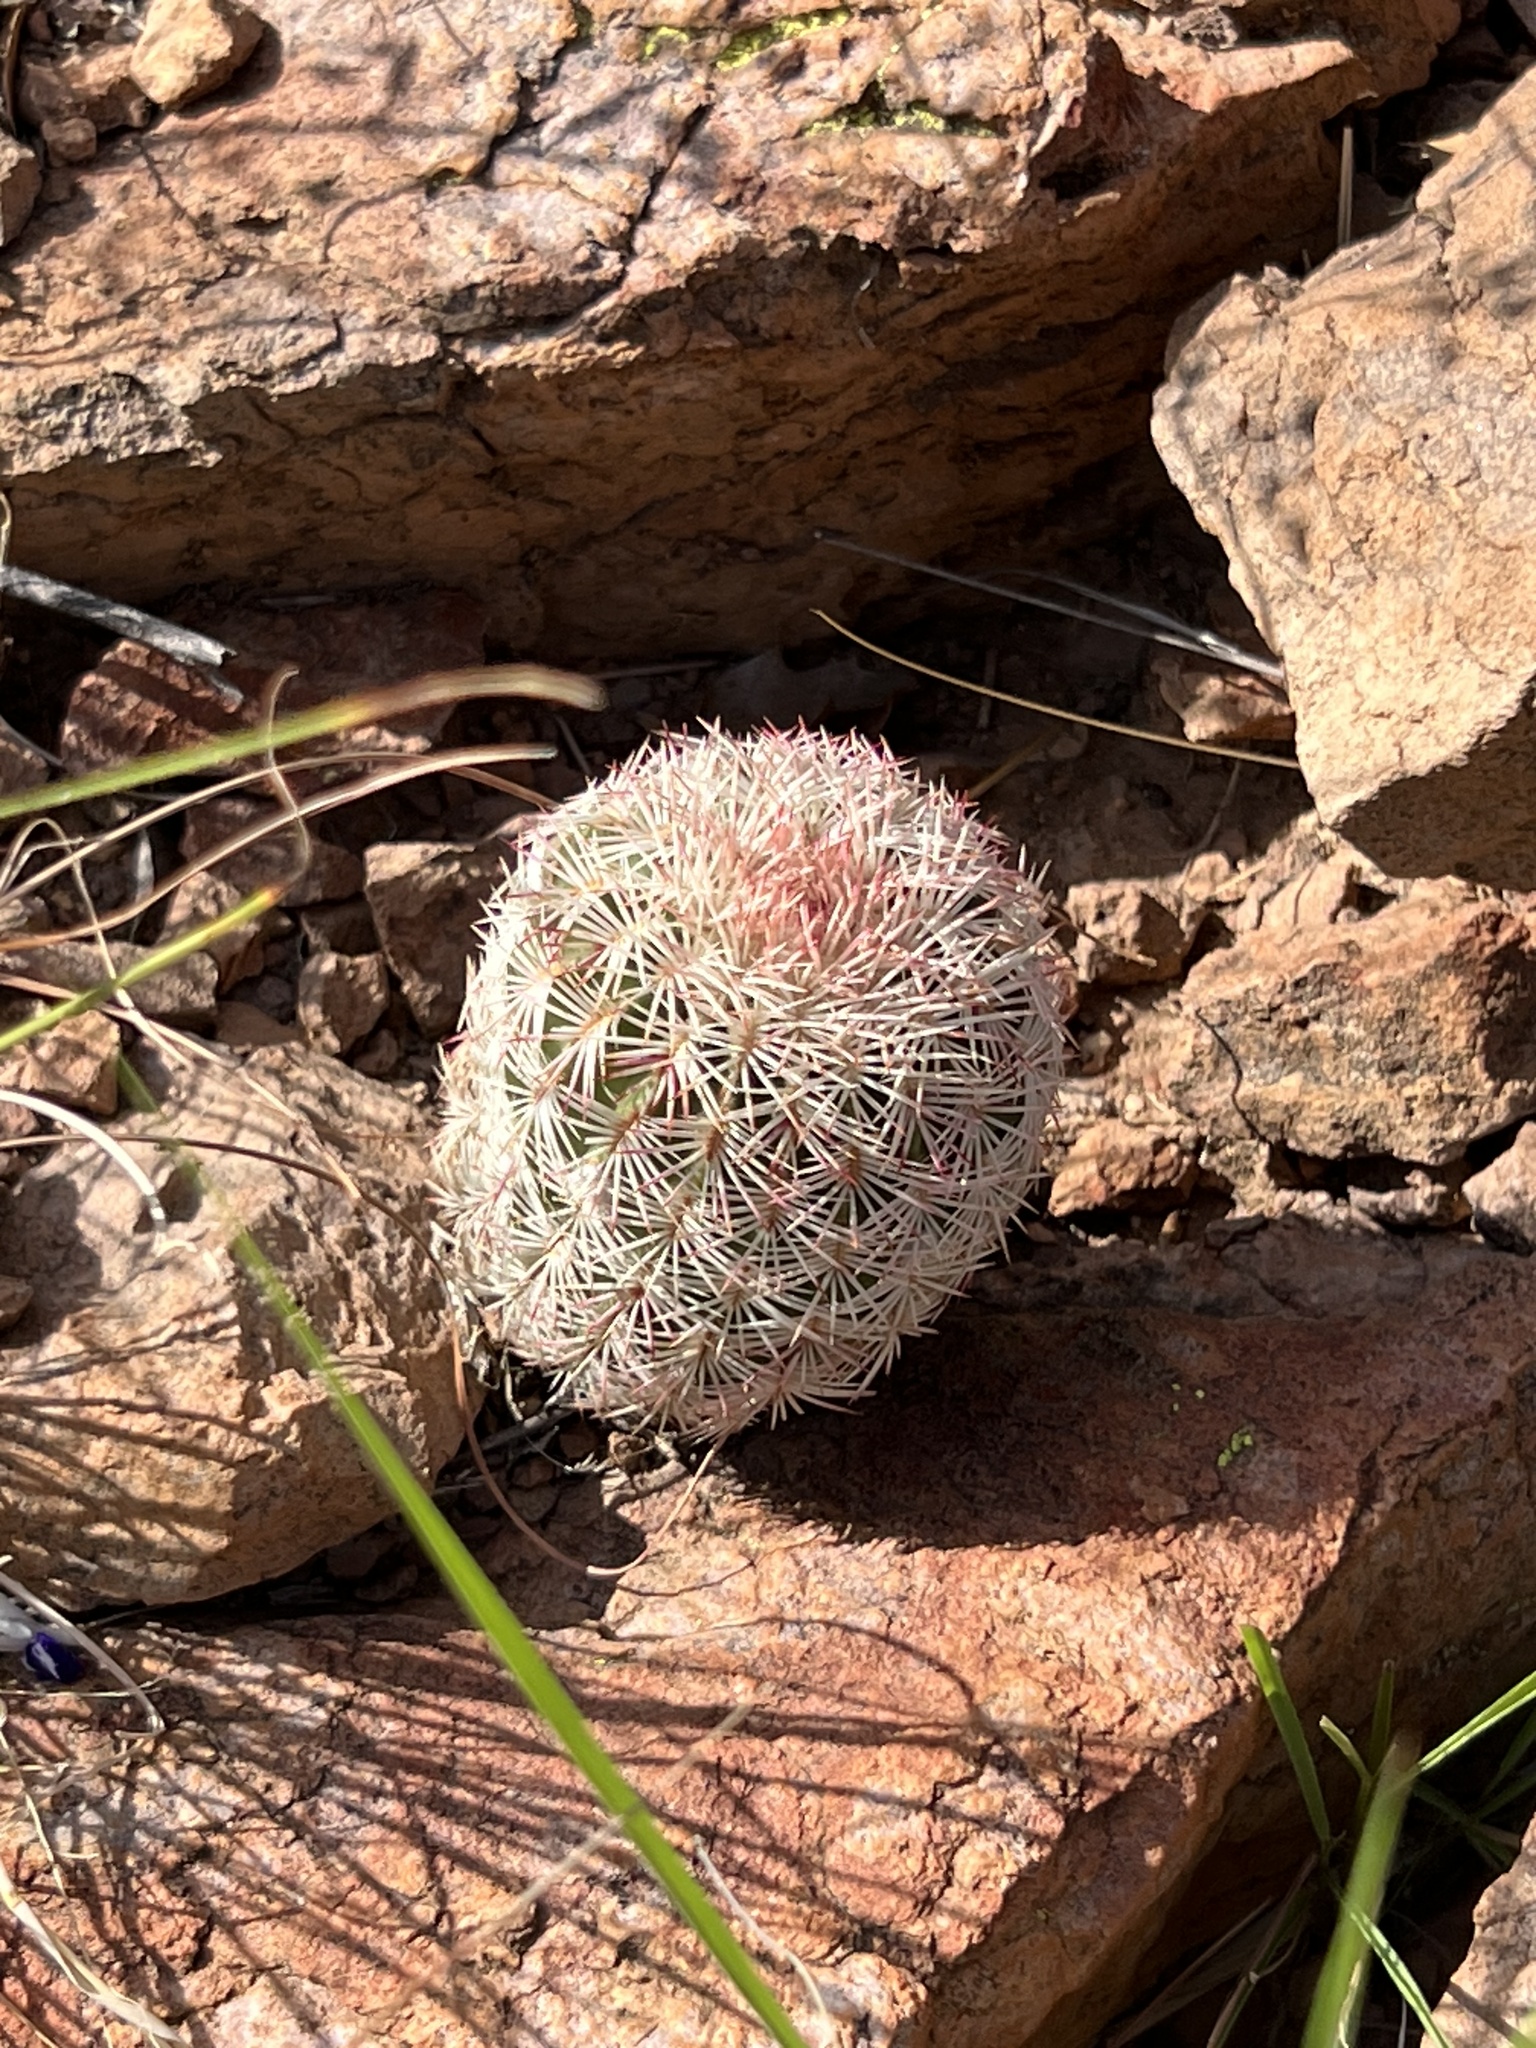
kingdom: Plantae
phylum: Tracheophyta
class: Magnoliopsida
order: Caryophyllales
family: Cactaceae
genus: Echinocereus
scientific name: Echinocereus rigidissimus
